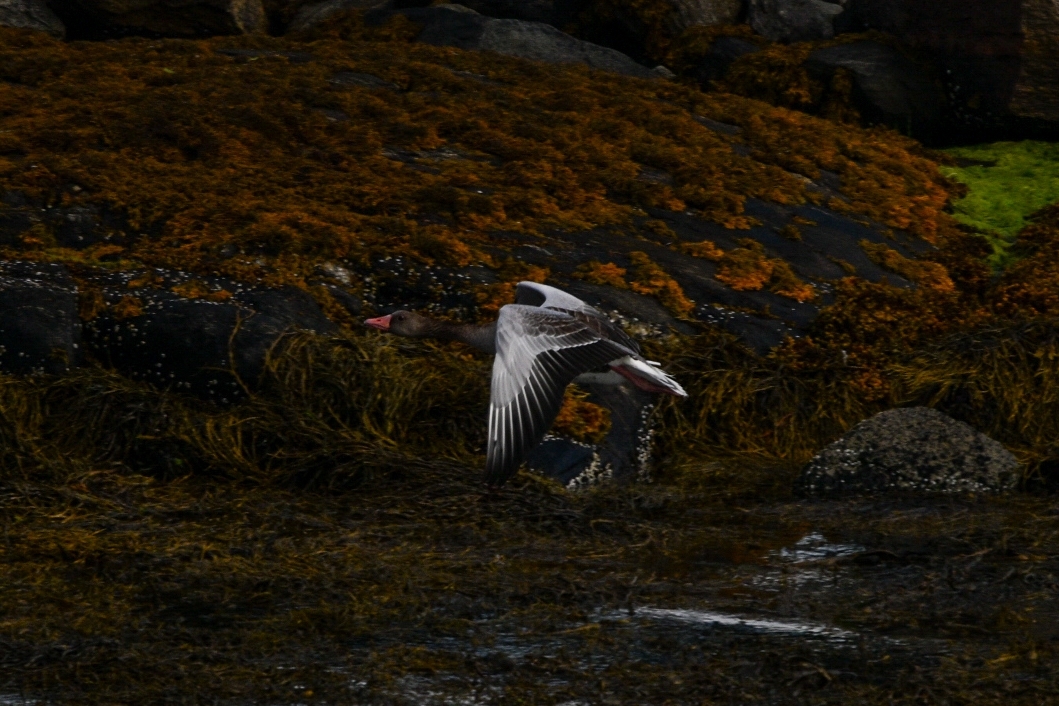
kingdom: Animalia
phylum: Chordata
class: Aves
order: Anseriformes
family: Anatidae
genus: Anser
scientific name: Anser anser
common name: Greylag goose
